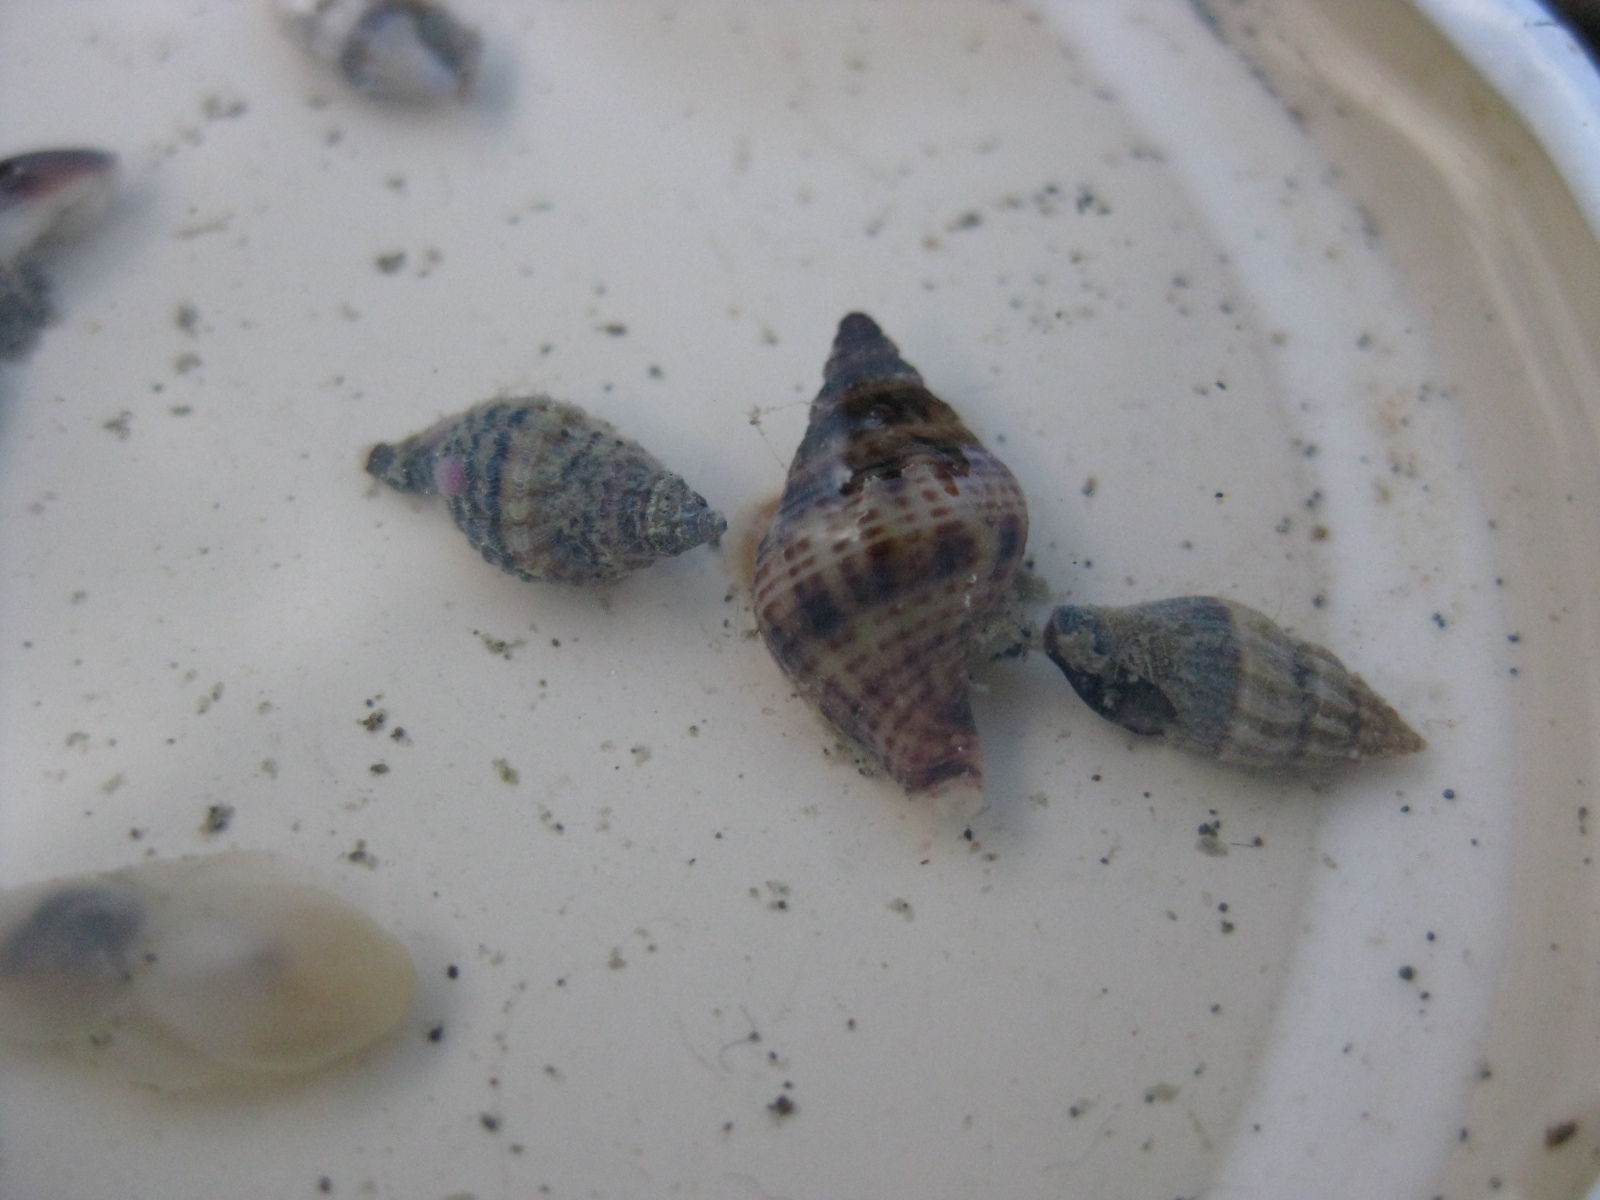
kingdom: Animalia
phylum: Mollusca
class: Gastropoda
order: Neogastropoda
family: Tudiclidae
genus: Buccinulum
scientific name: Buccinulum vittatum
